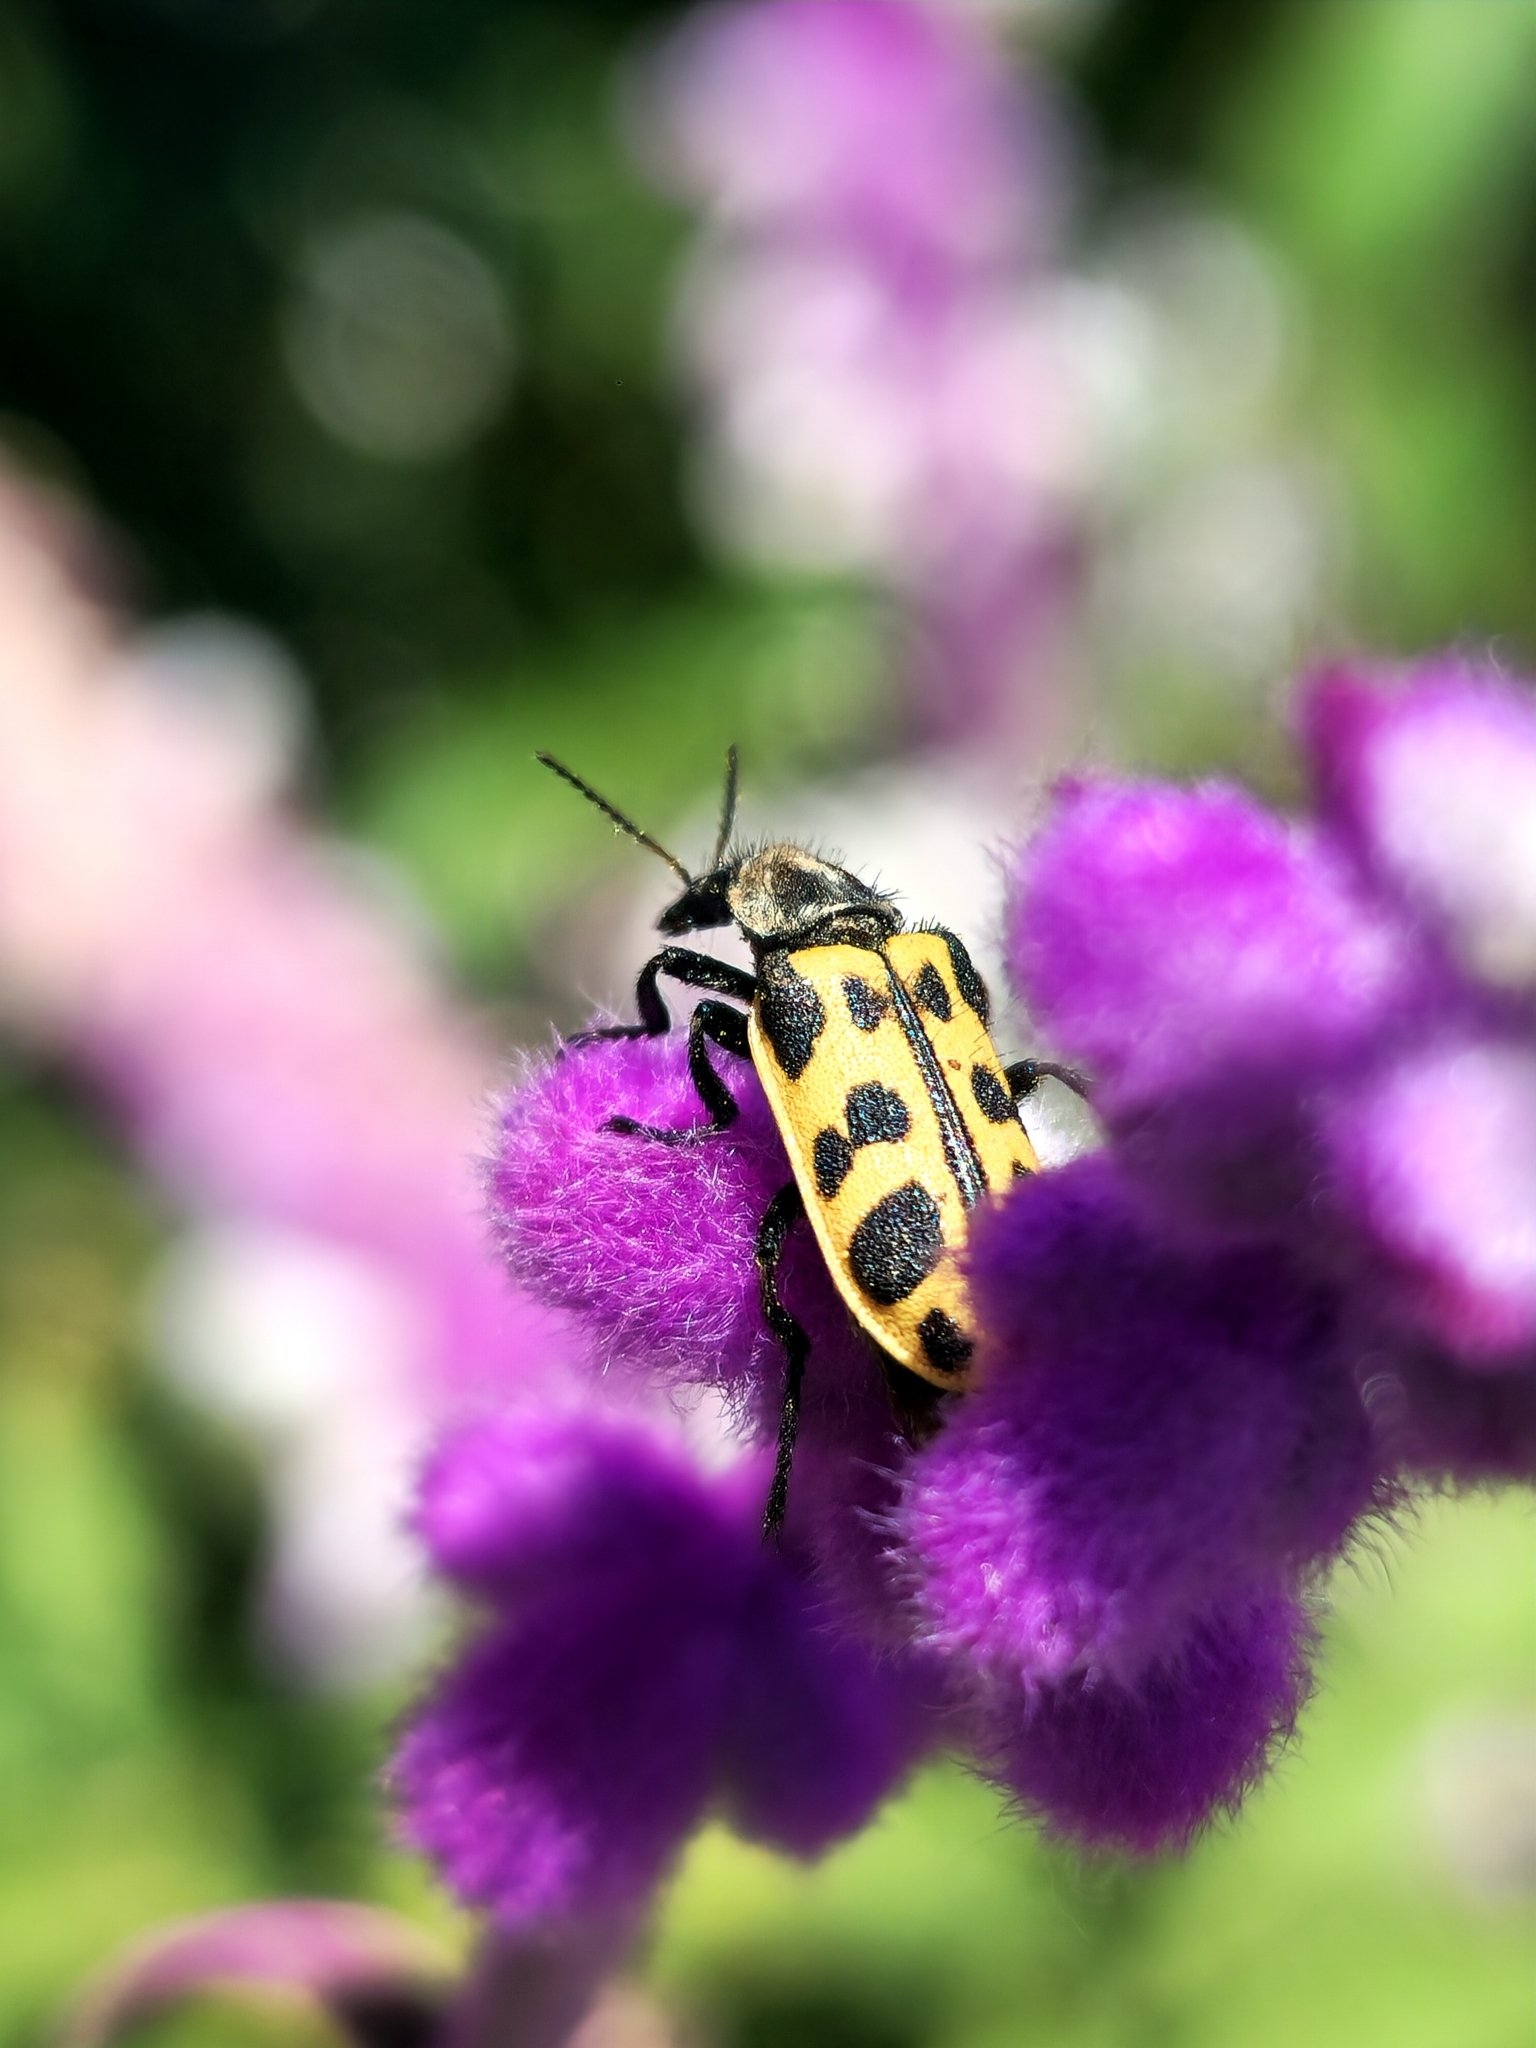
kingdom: Animalia
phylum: Arthropoda
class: Insecta
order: Coleoptera
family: Melyridae
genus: Astylus
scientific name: Astylus atromaculatus
